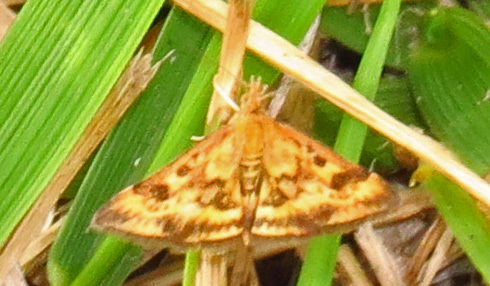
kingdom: Animalia
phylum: Arthropoda
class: Insecta
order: Lepidoptera
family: Crambidae
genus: Pyrausta
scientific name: Pyrausta subsequalis
